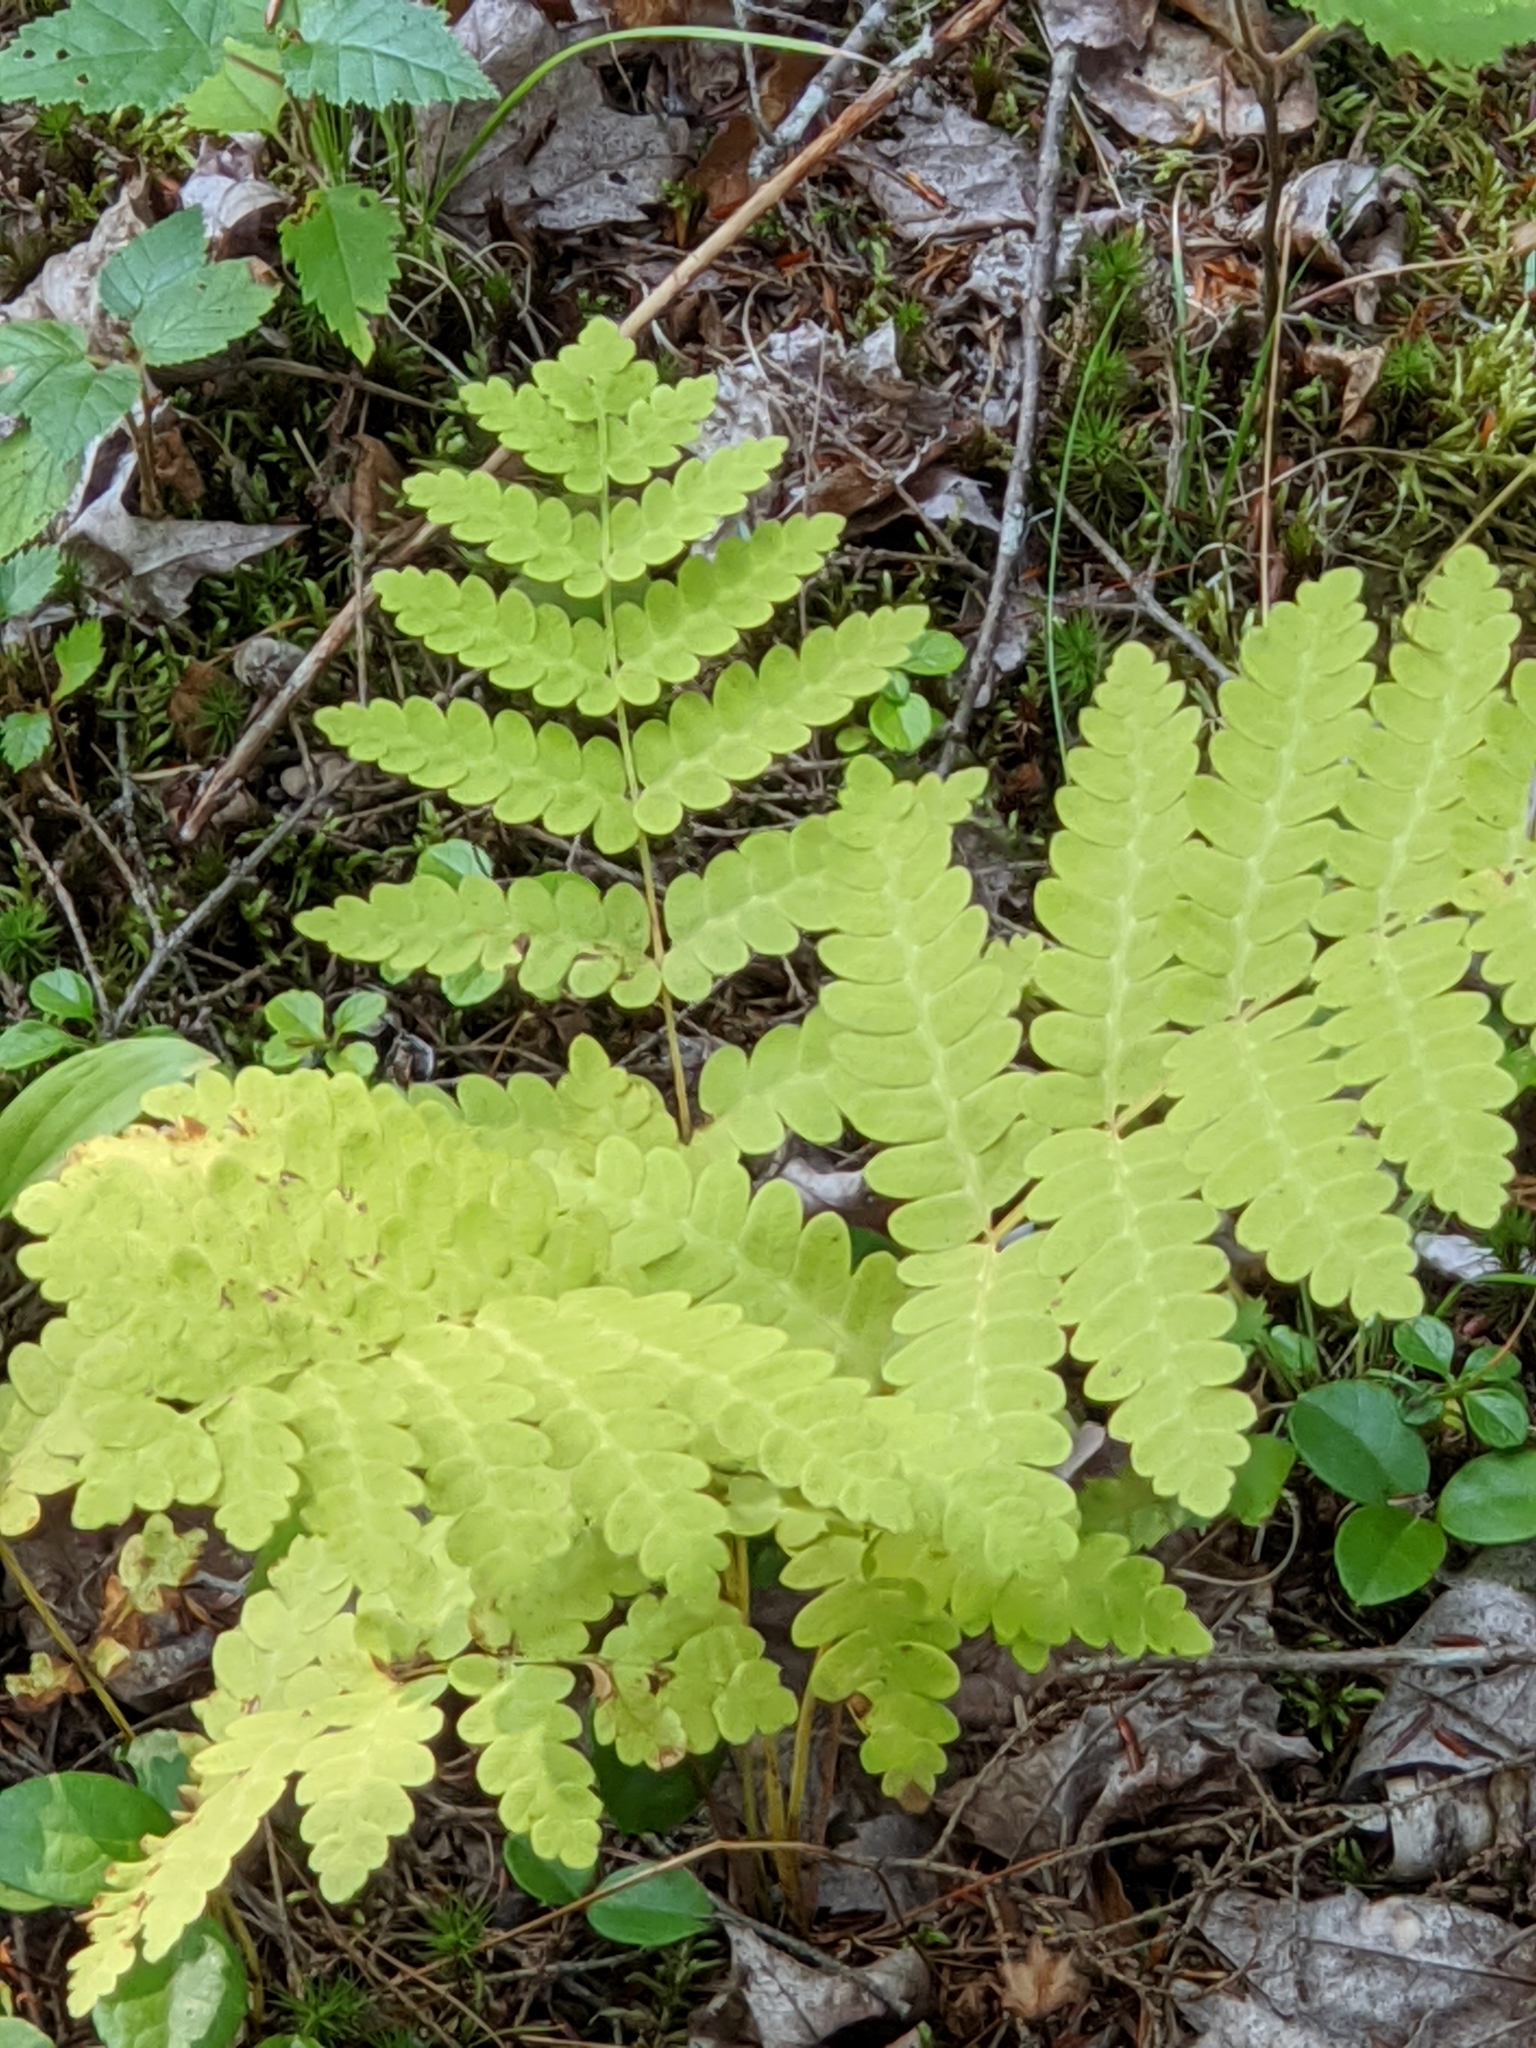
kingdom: Plantae
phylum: Tracheophyta
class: Polypodiopsida
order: Osmundales
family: Osmundaceae
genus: Claytosmunda
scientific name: Claytosmunda claytoniana
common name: Clayton's fern
